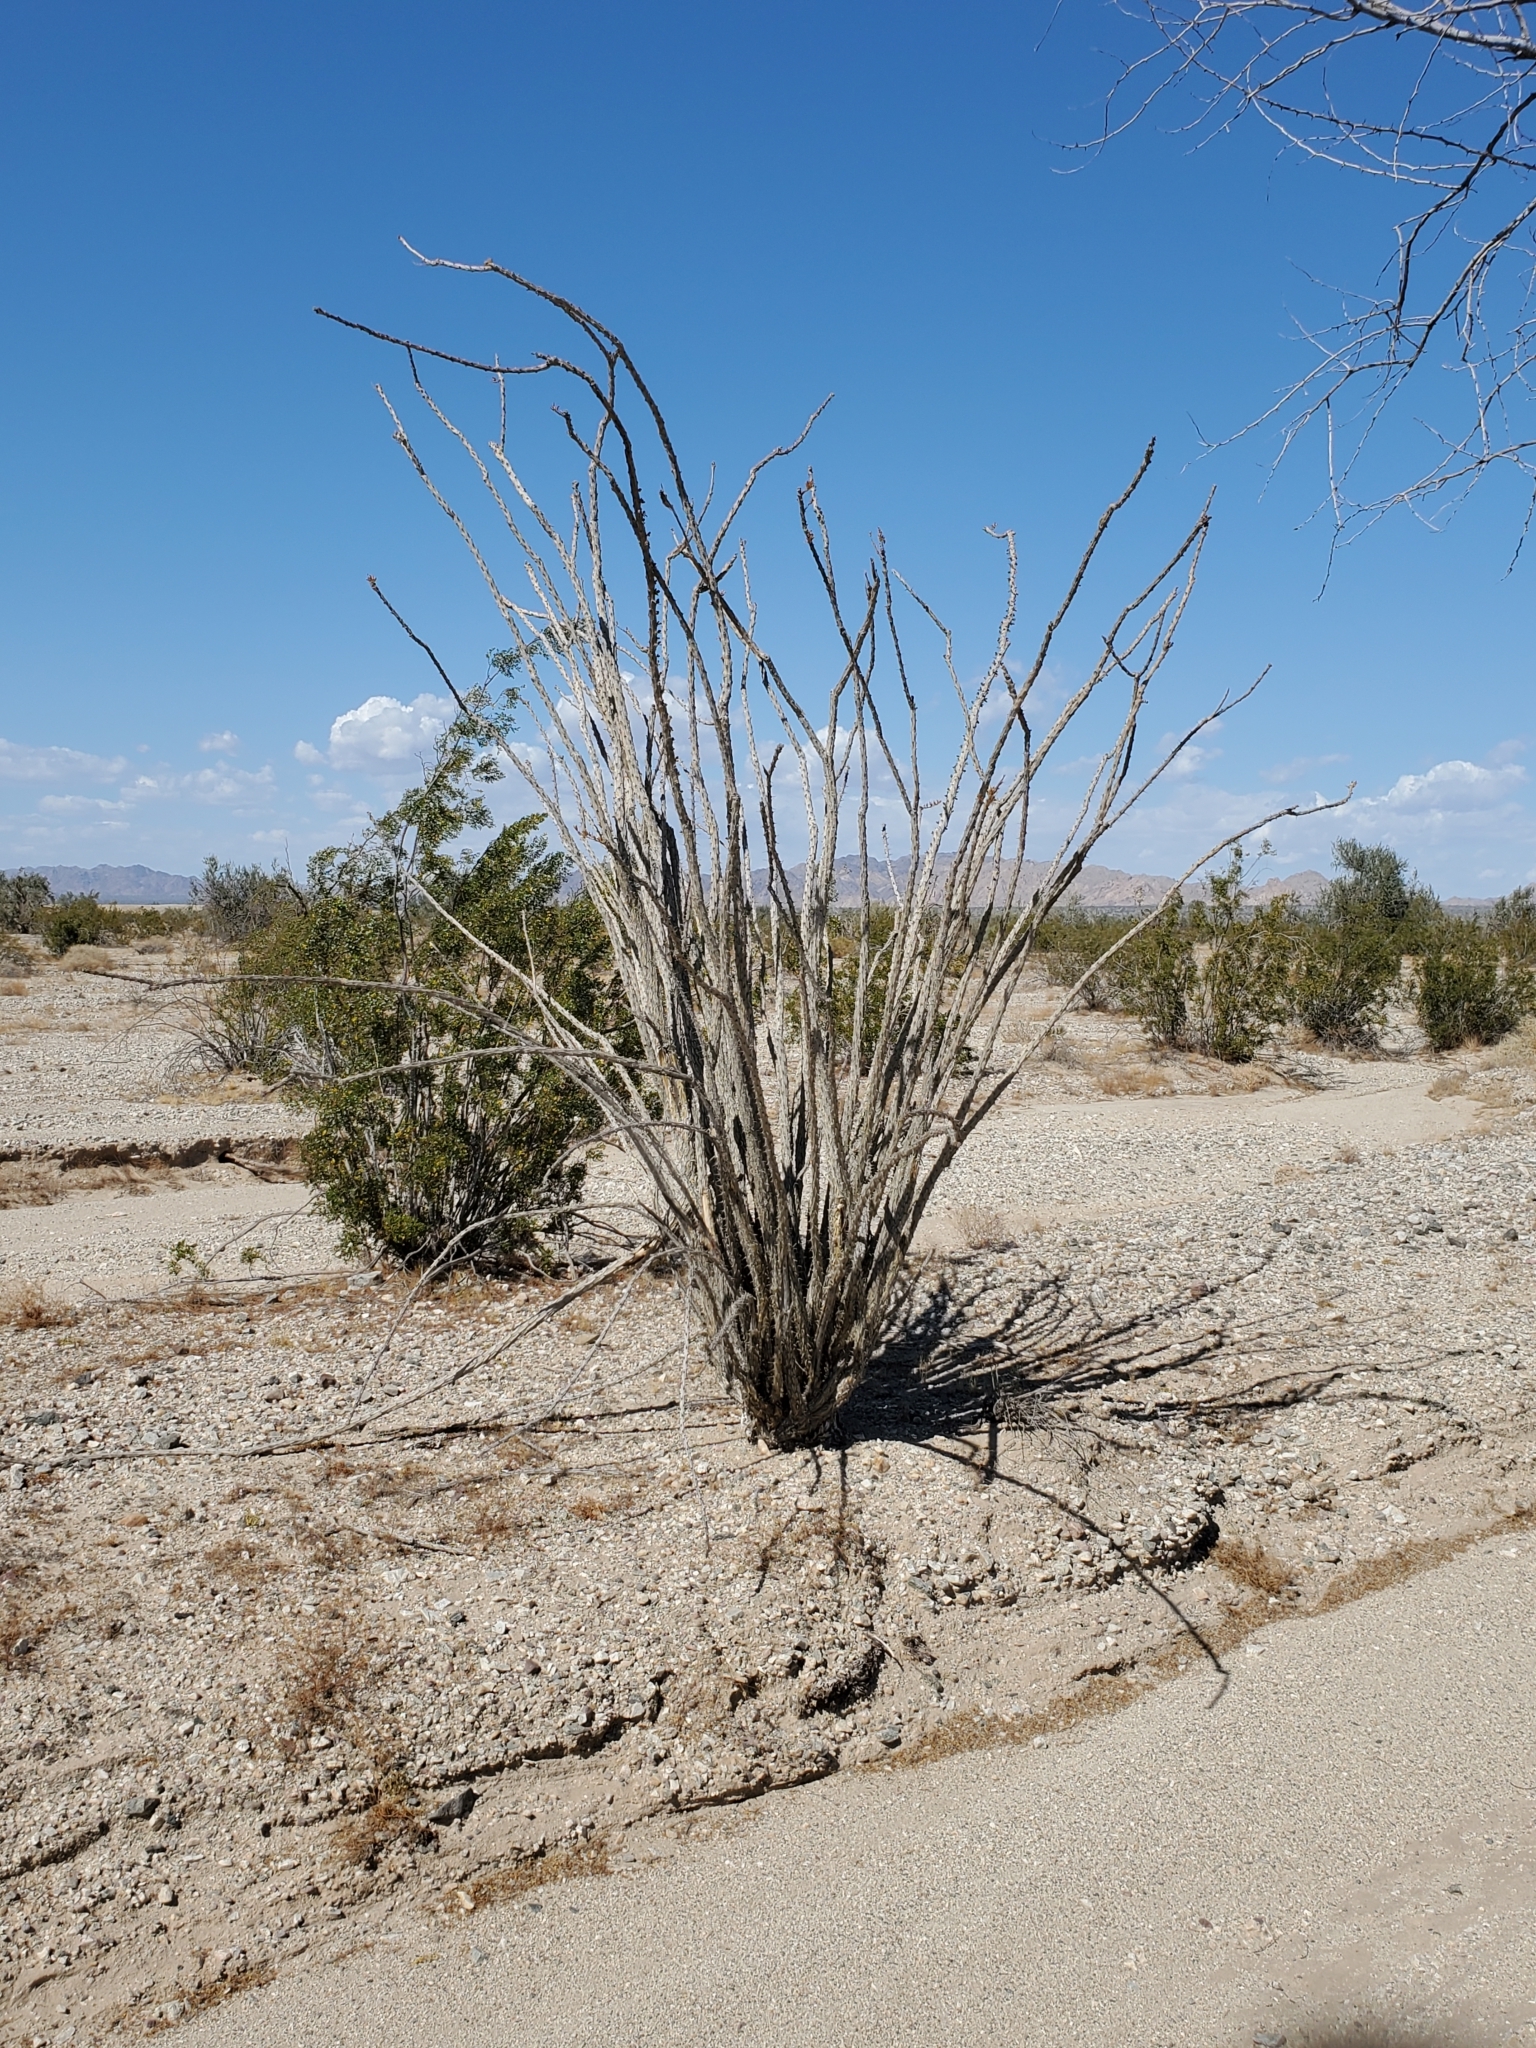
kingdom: Plantae
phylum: Tracheophyta
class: Magnoliopsida
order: Ericales
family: Fouquieriaceae
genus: Fouquieria
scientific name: Fouquieria splendens
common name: Vine-cactus
